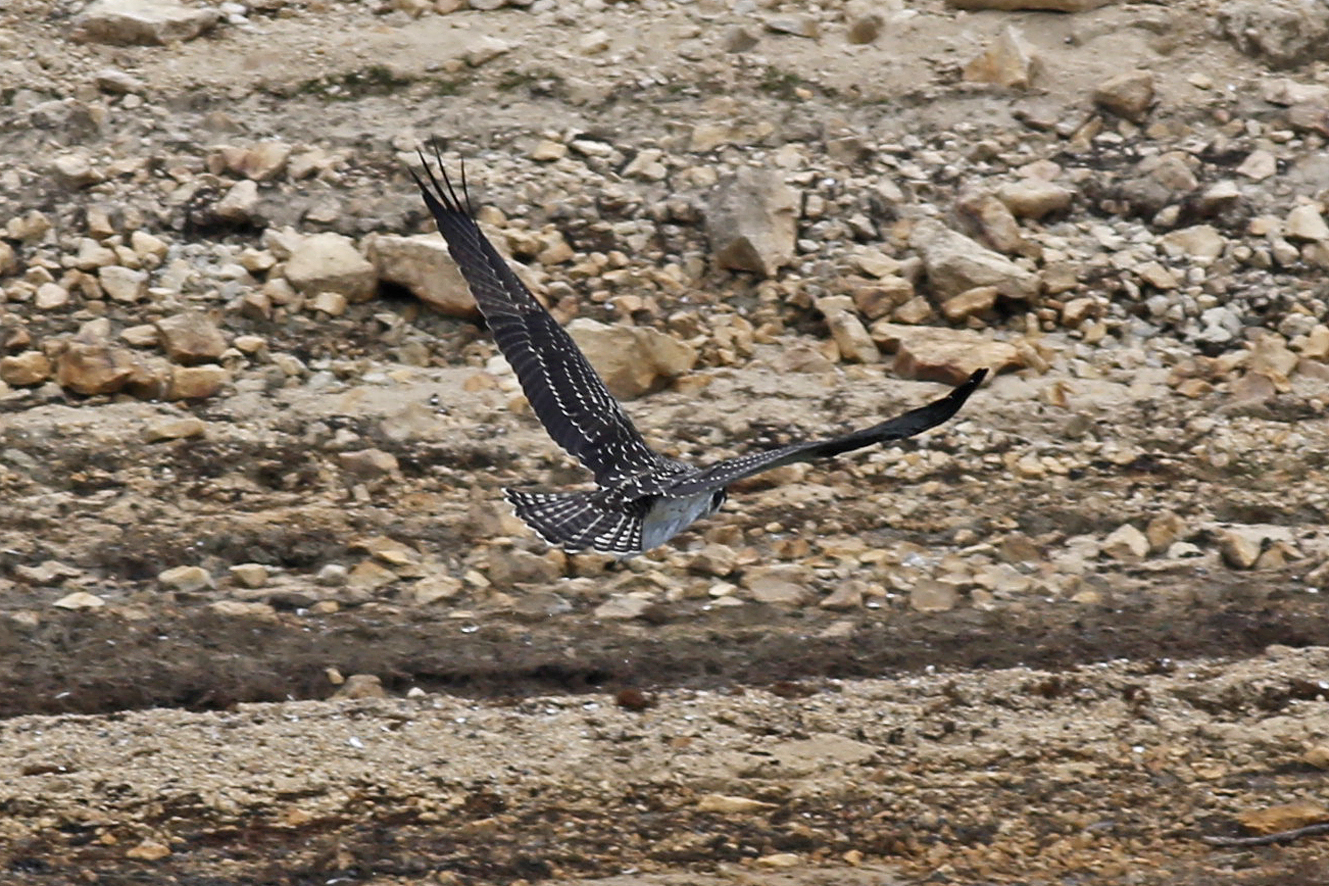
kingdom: Animalia
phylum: Chordata
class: Aves
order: Accipitriformes
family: Pandionidae
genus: Pandion
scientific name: Pandion haliaetus
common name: Osprey
